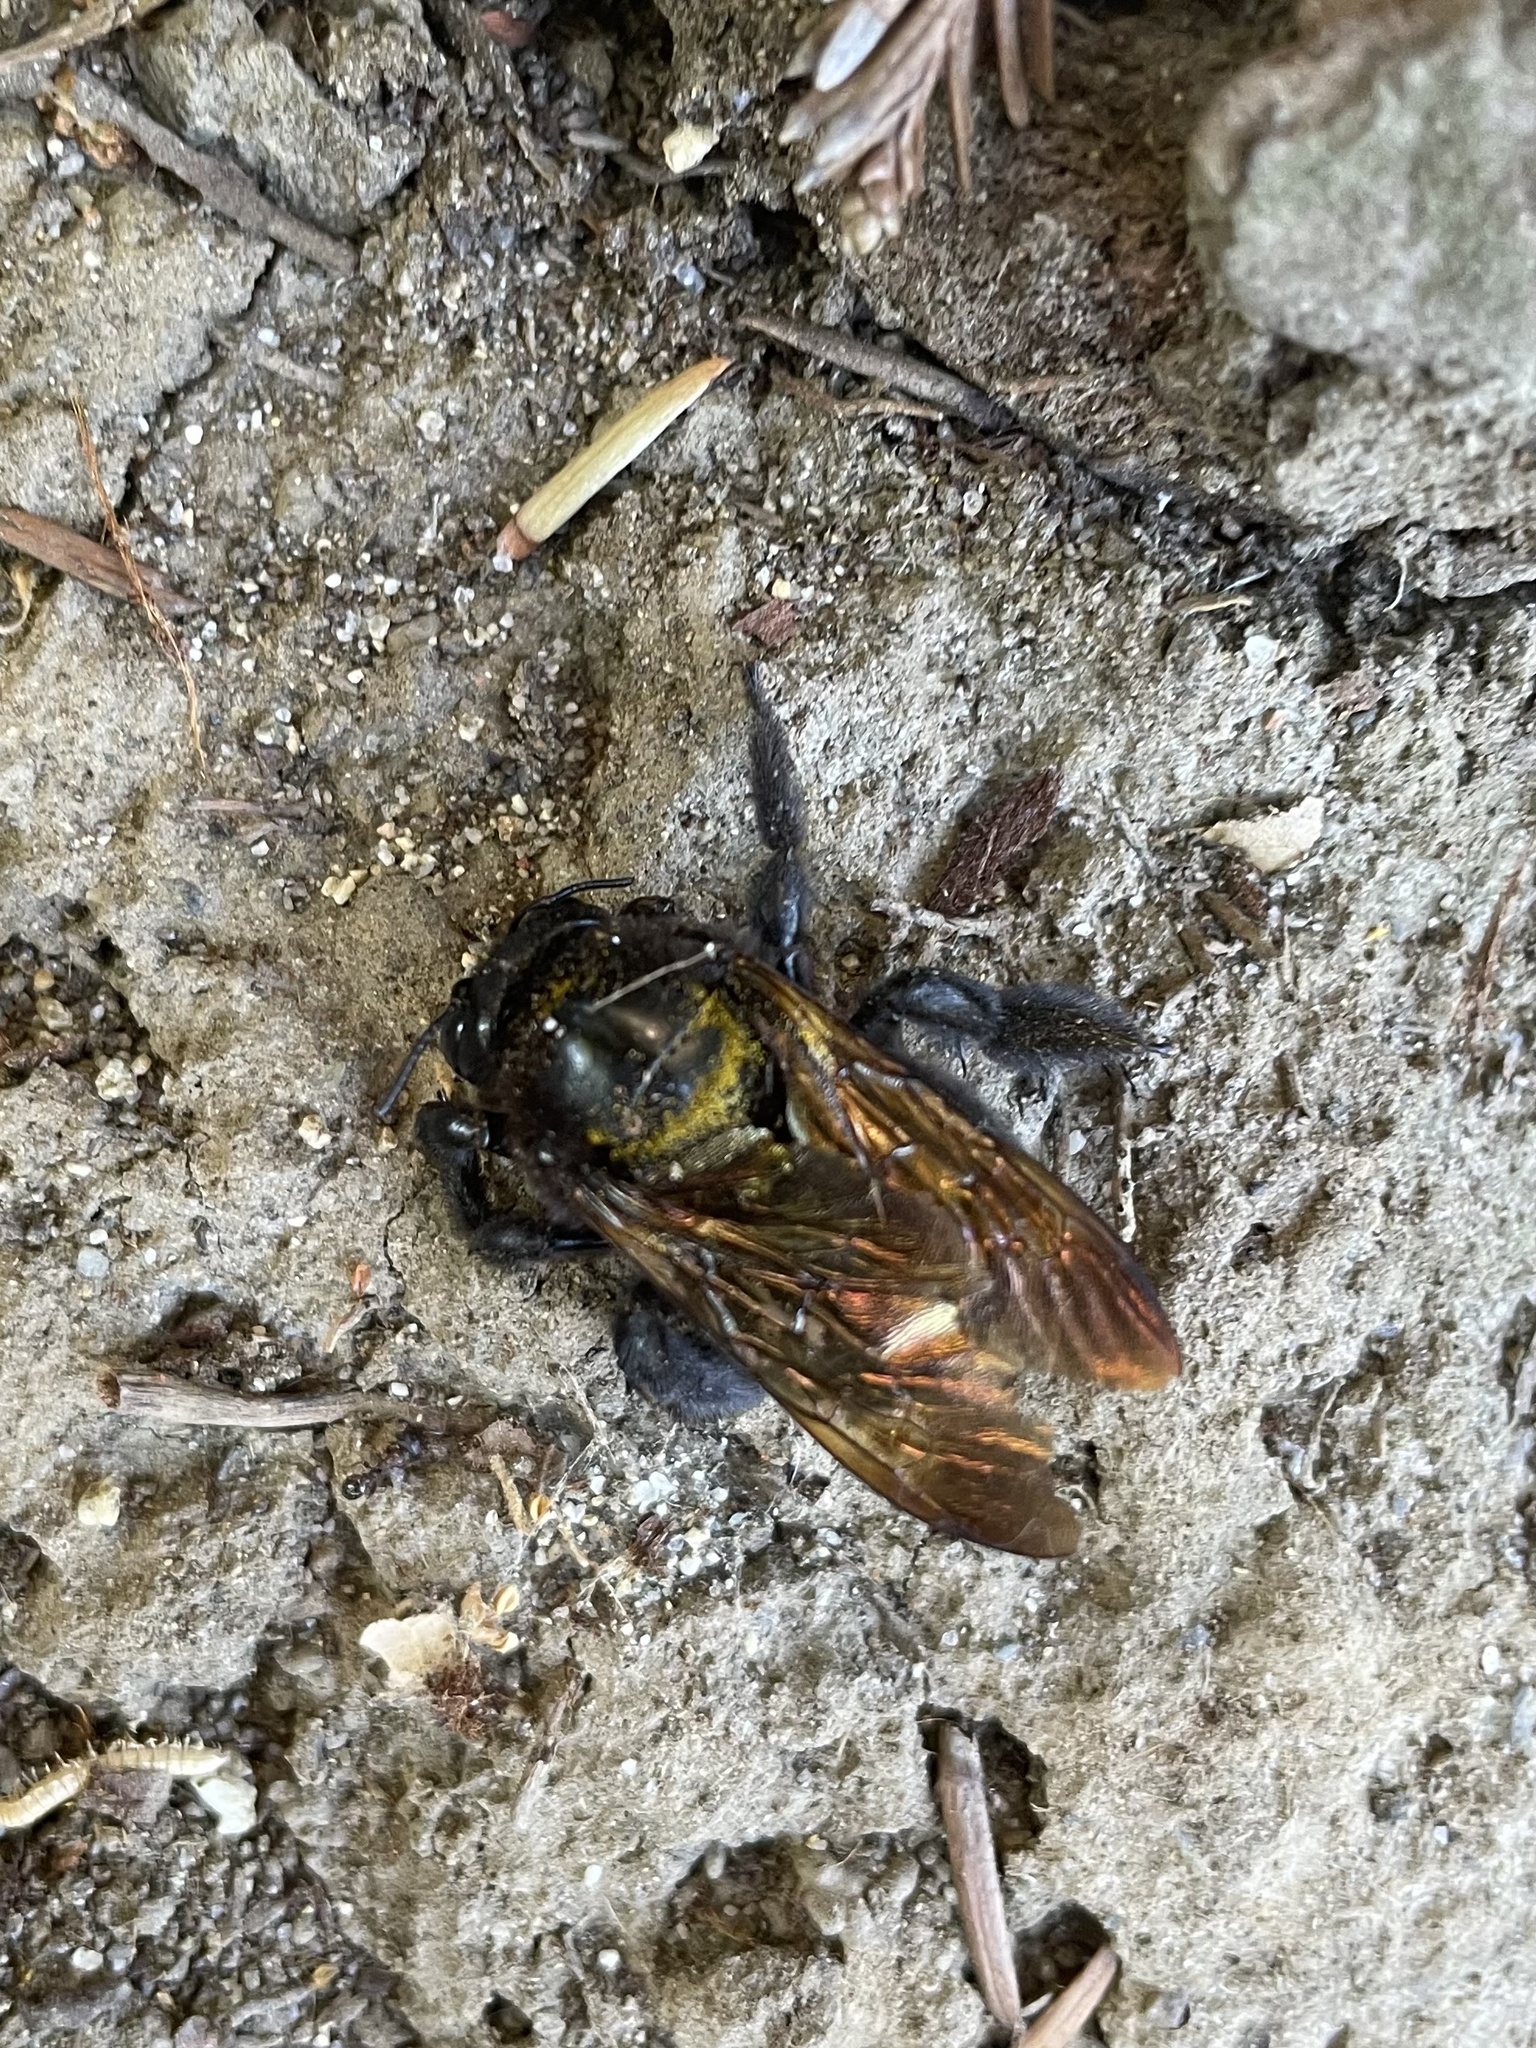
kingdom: Animalia
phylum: Arthropoda
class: Insecta
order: Hymenoptera
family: Apidae
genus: Xylocopa
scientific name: Xylocopa sonorina
